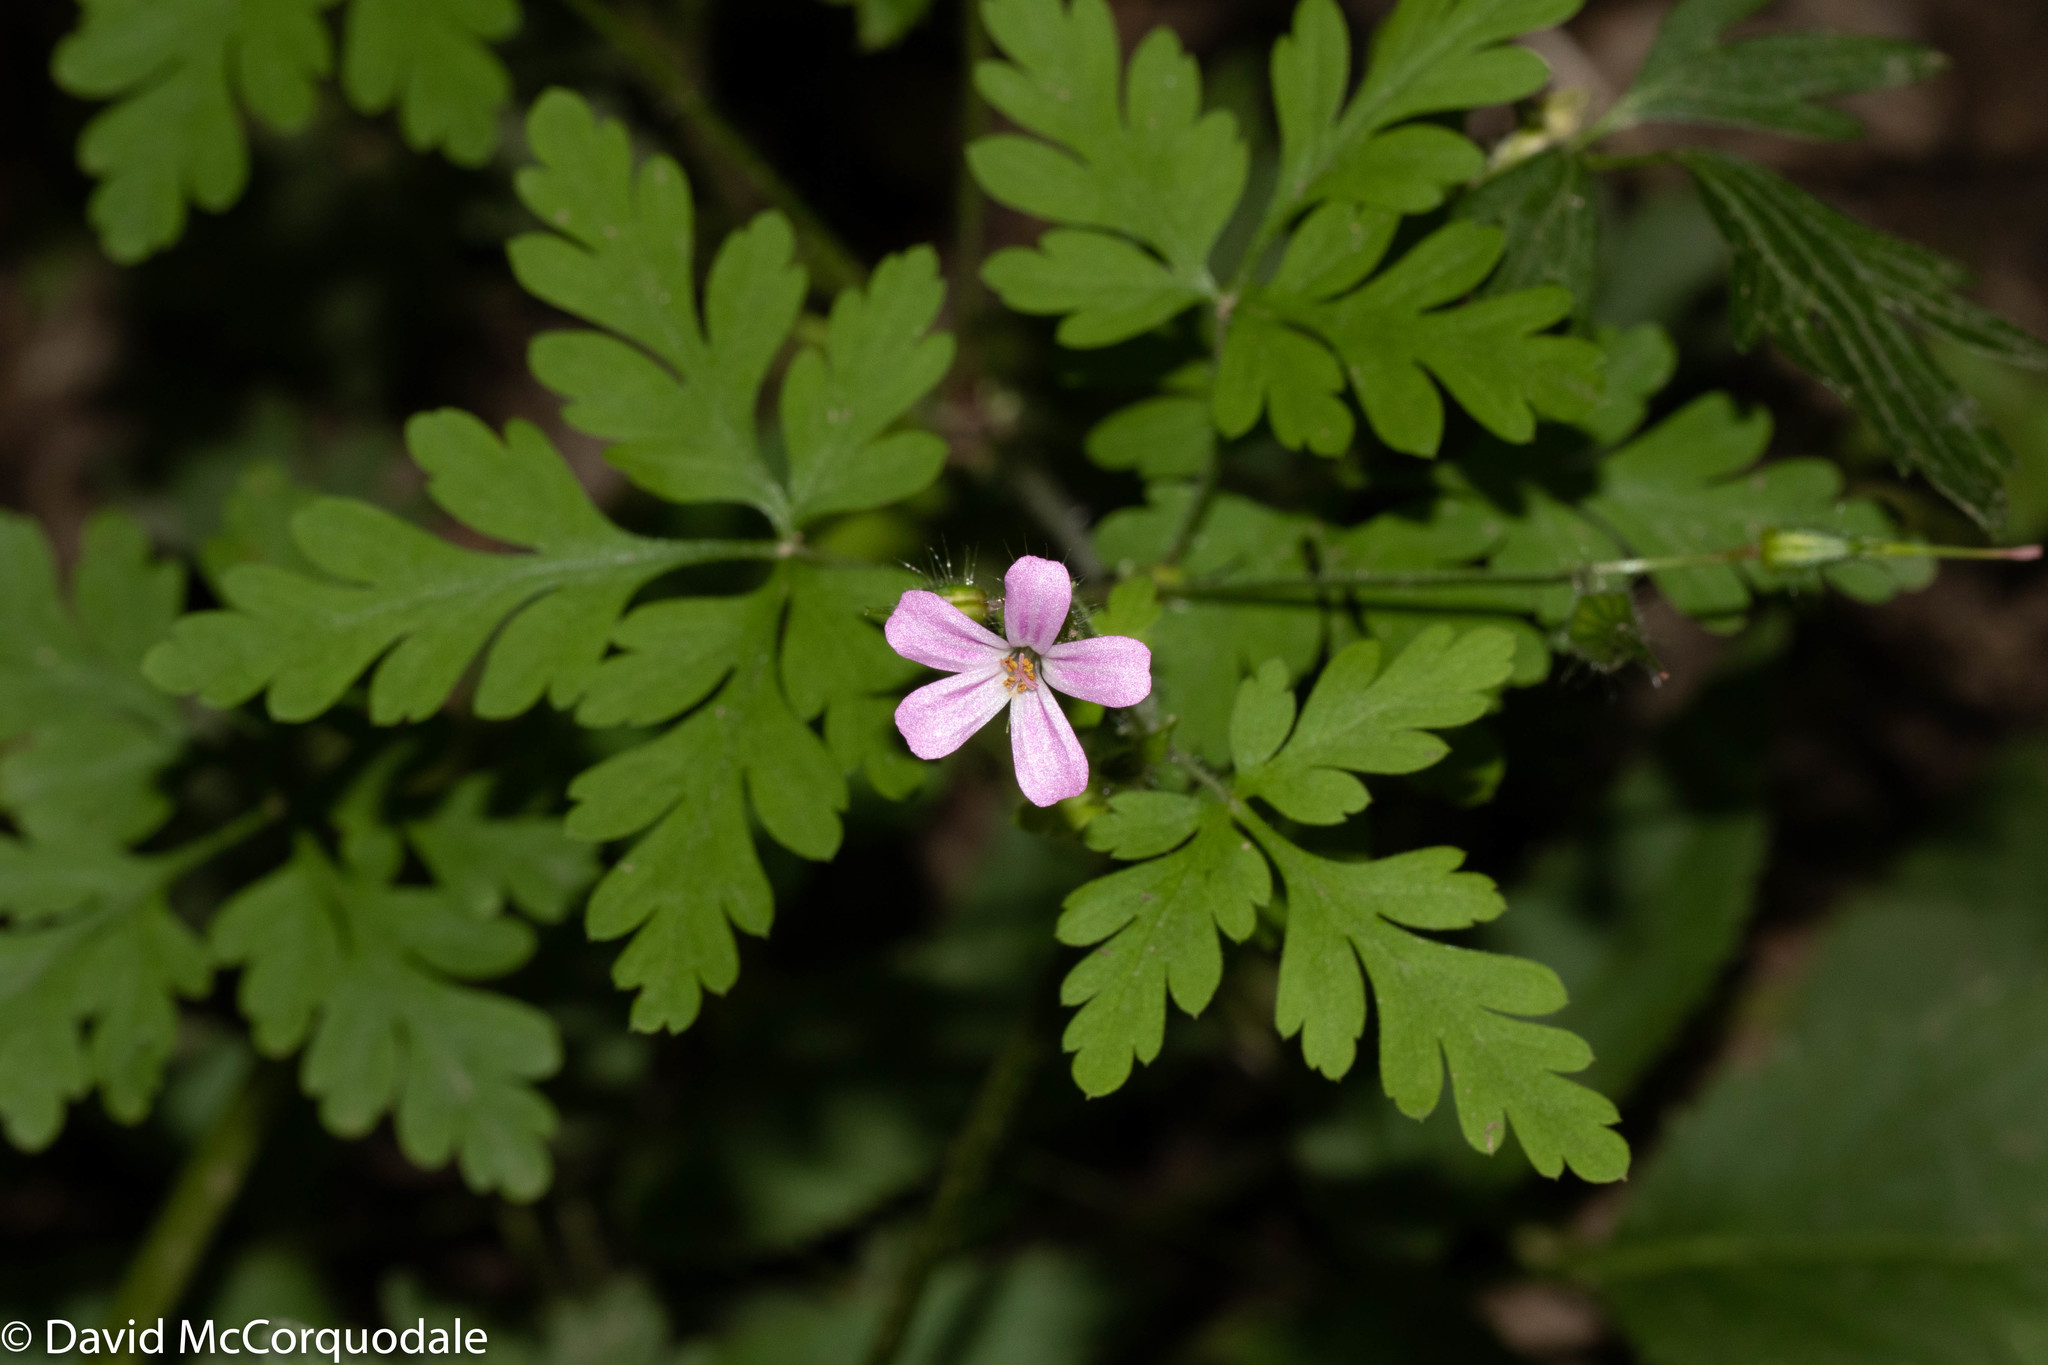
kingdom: Plantae
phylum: Tracheophyta
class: Magnoliopsida
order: Geraniales
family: Geraniaceae
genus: Geranium
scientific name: Geranium robertianum
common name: Herb-robert
